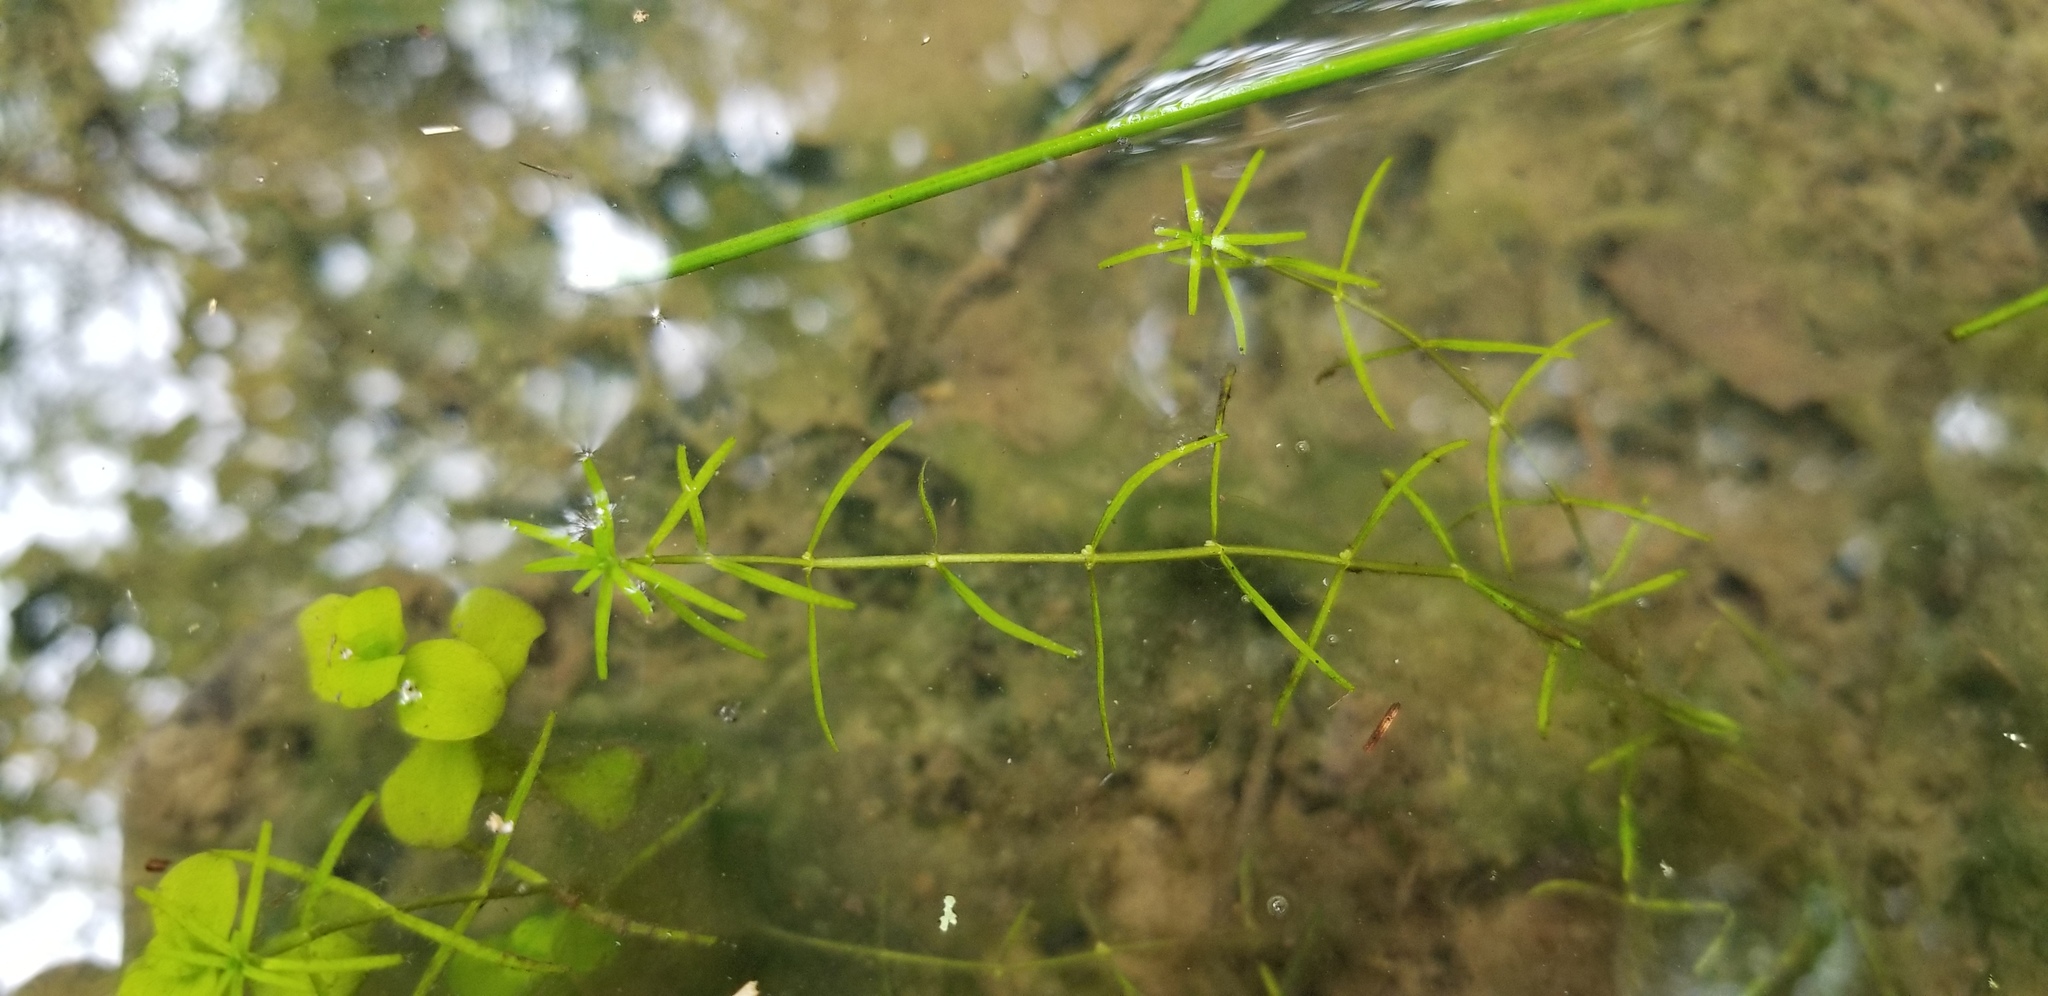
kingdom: Plantae
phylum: Tracheophyta
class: Magnoliopsida
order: Lamiales
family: Plantaginaceae
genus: Callitriche
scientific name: Callitriche heterophylla
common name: Two-headed water-starwort
